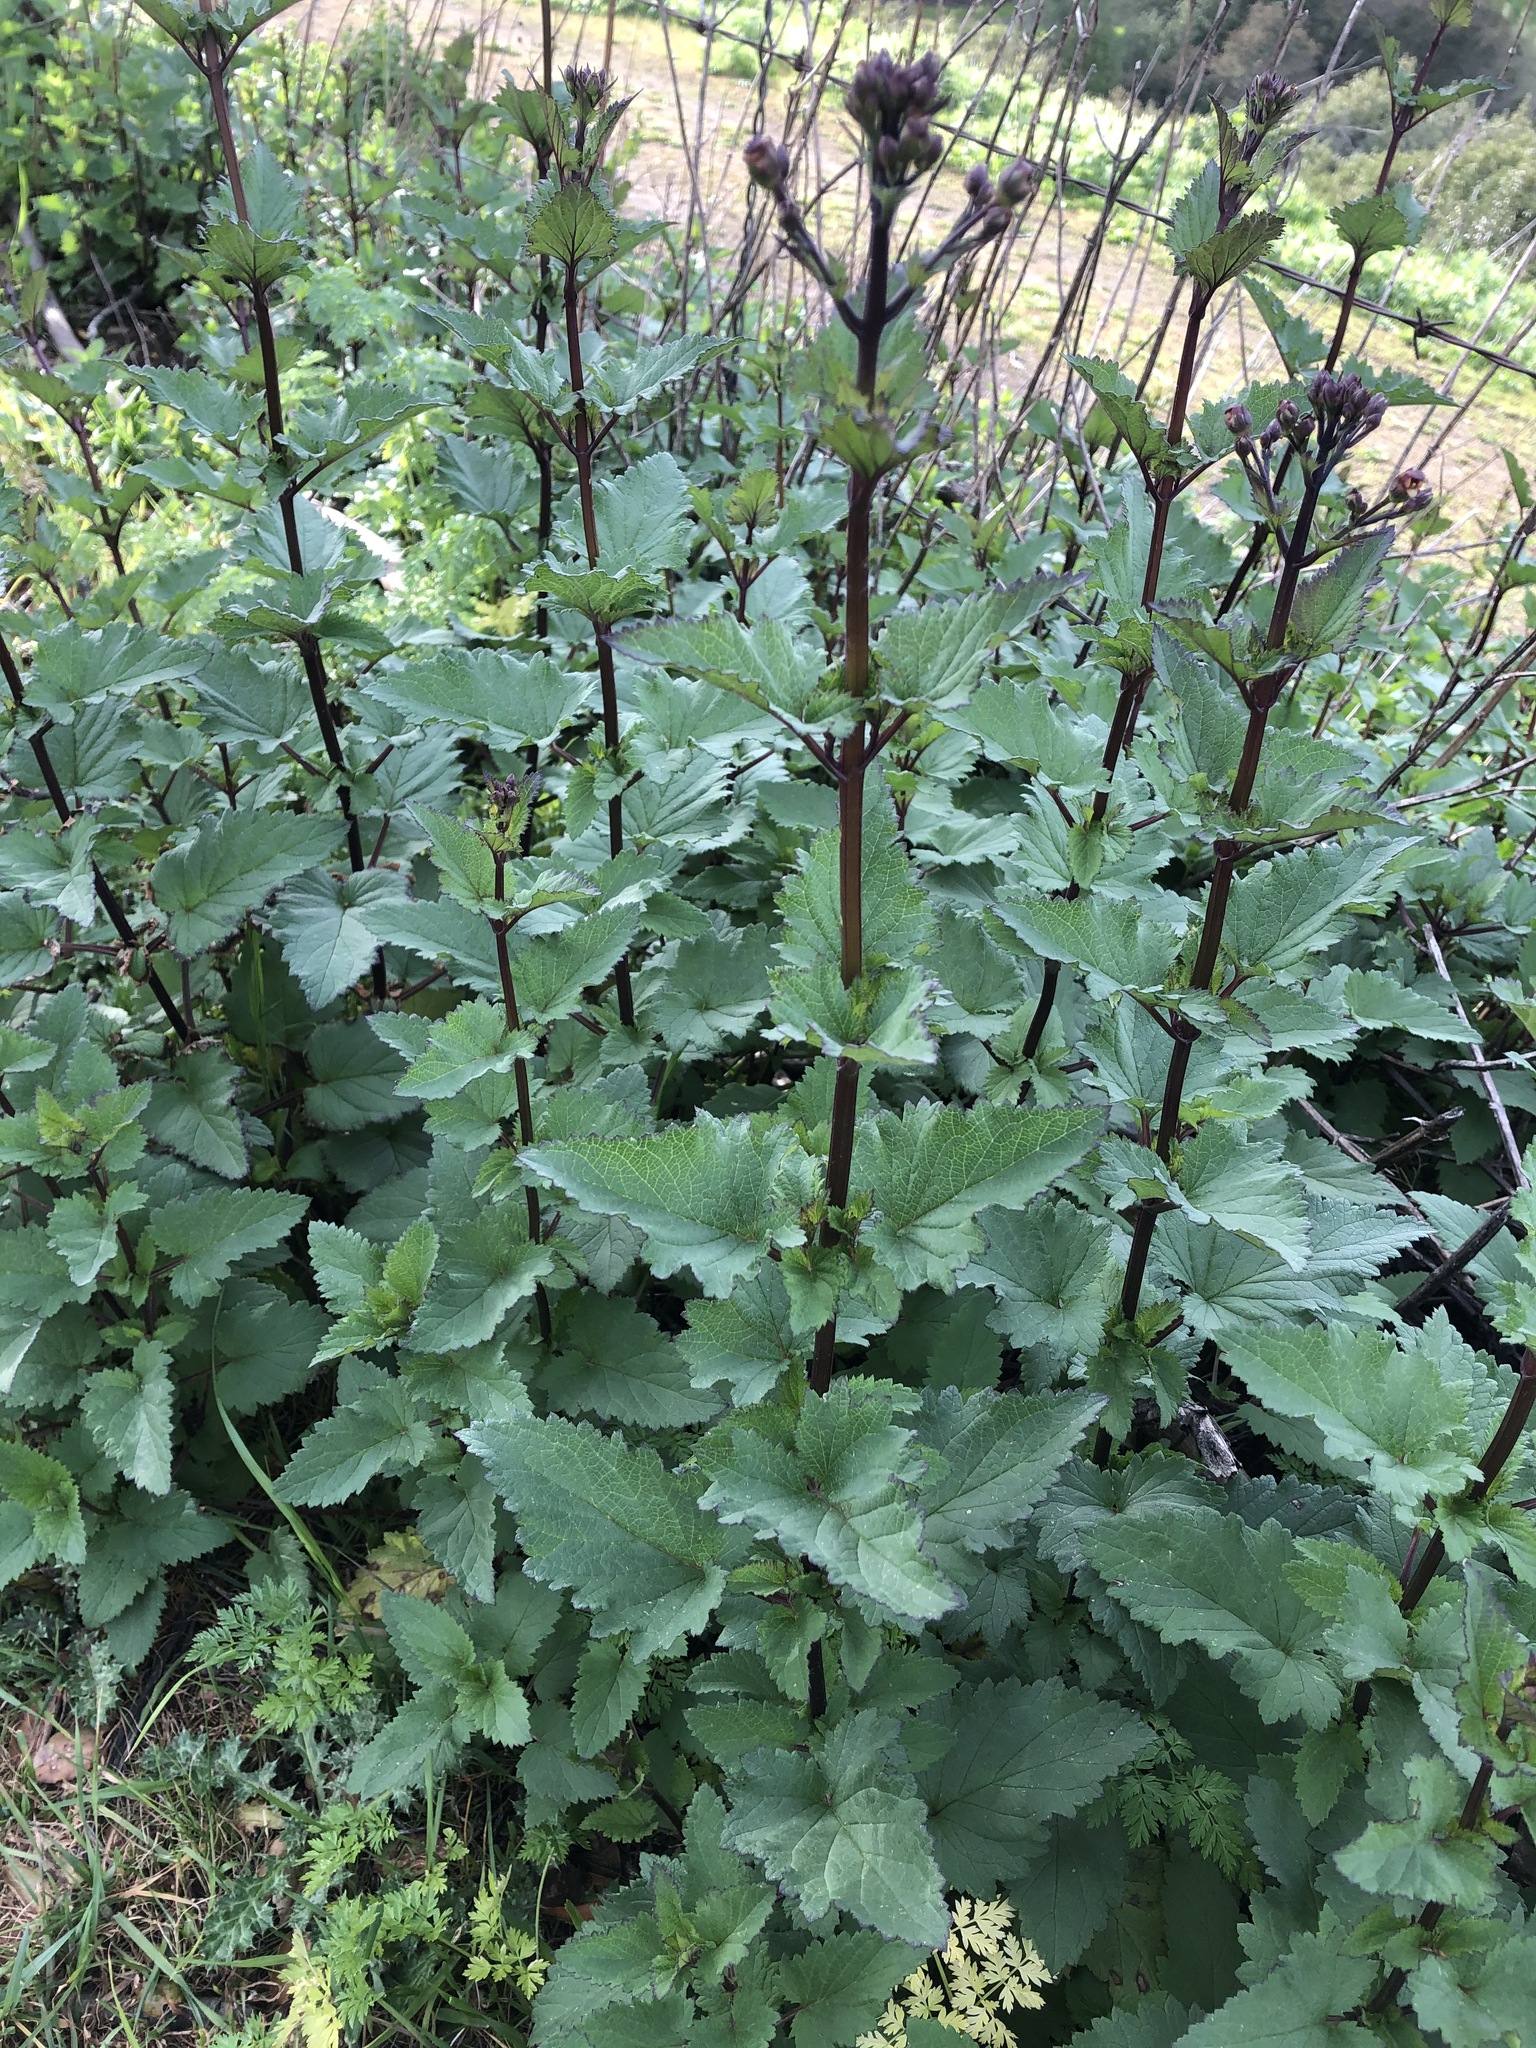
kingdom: Plantae
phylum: Tracheophyta
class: Magnoliopsida
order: Lamiales
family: Scrophulariaceae
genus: Scrophularia
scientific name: Scrophularia californica
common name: California figwort
